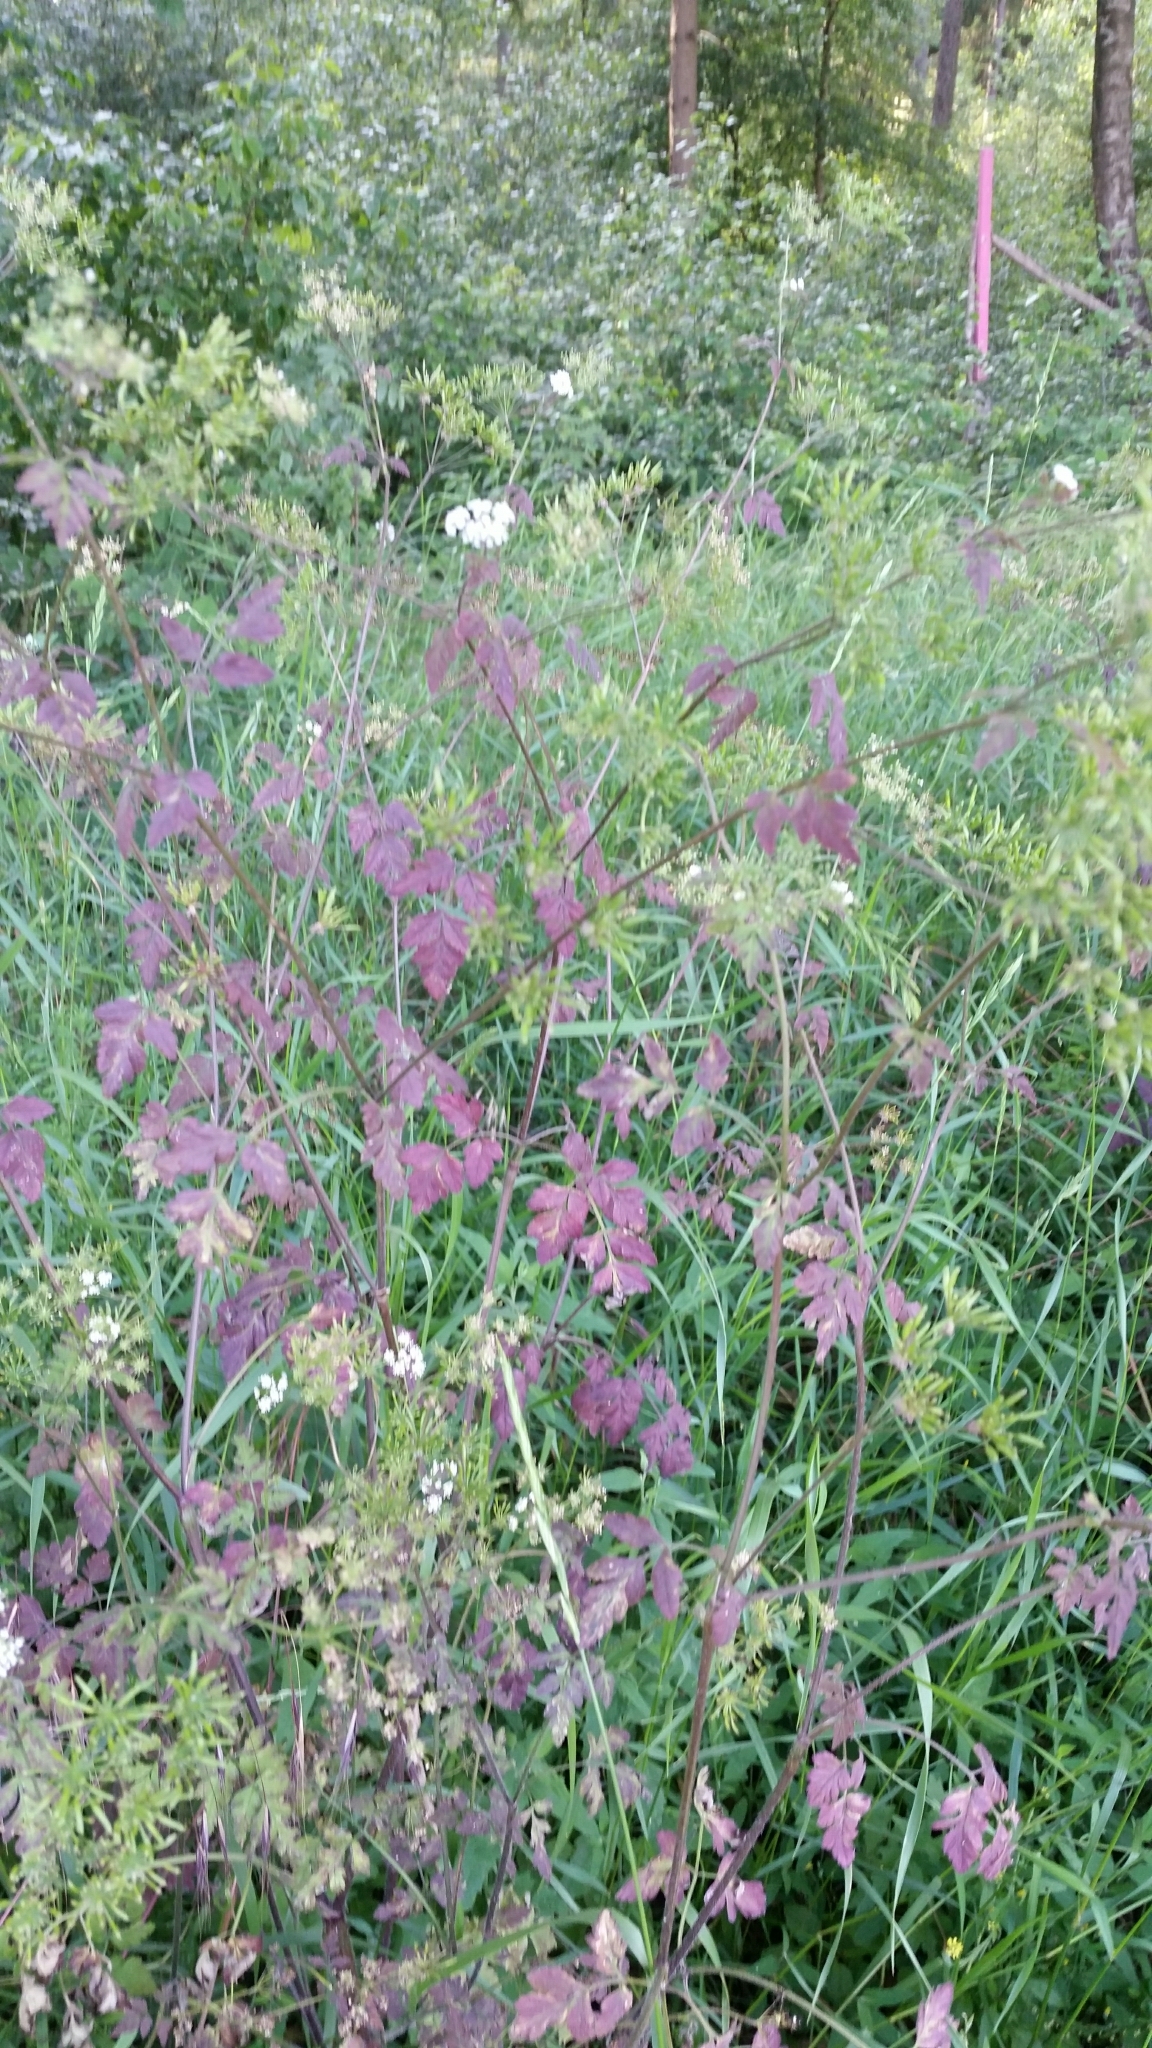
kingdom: Plantae
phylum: Tracheophyta
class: Magnoliopsida
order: Apiales
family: Apiaceae
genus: Chaerophyllum
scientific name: Chaerophyllum temulum
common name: Rough chervil
